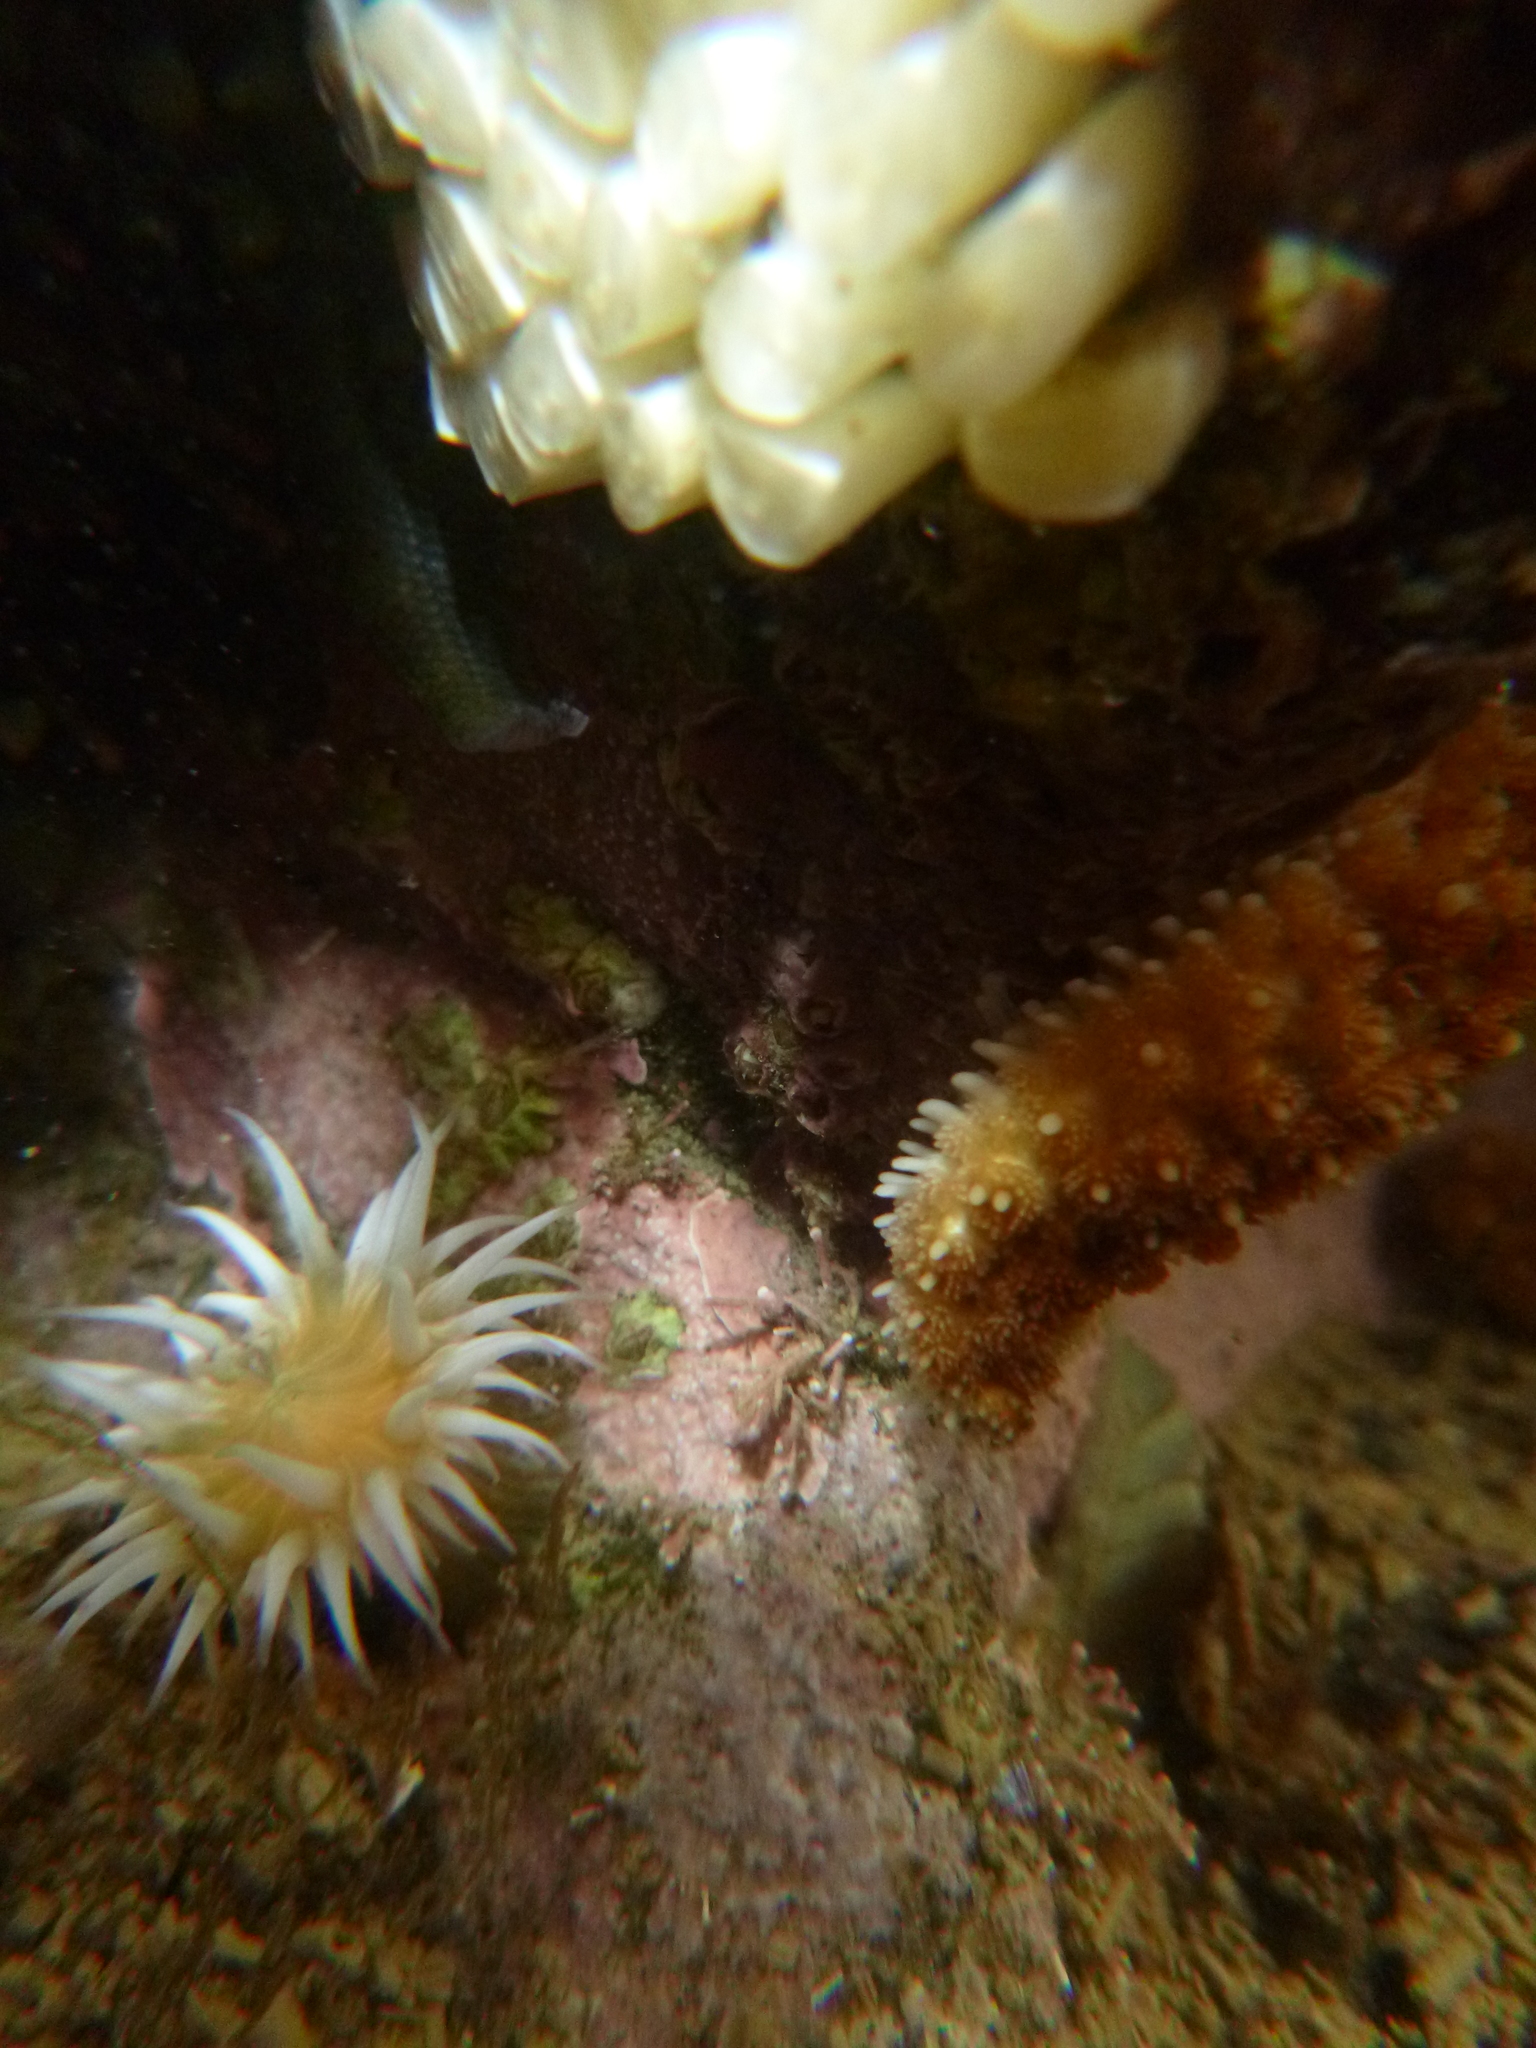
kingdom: Animalia
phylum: Cnidaria
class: Anthozoa
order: Actiniaria
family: Sagartiidae
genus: Anthothoe
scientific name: Anthothoe albocincta
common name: Orange striped anemone
